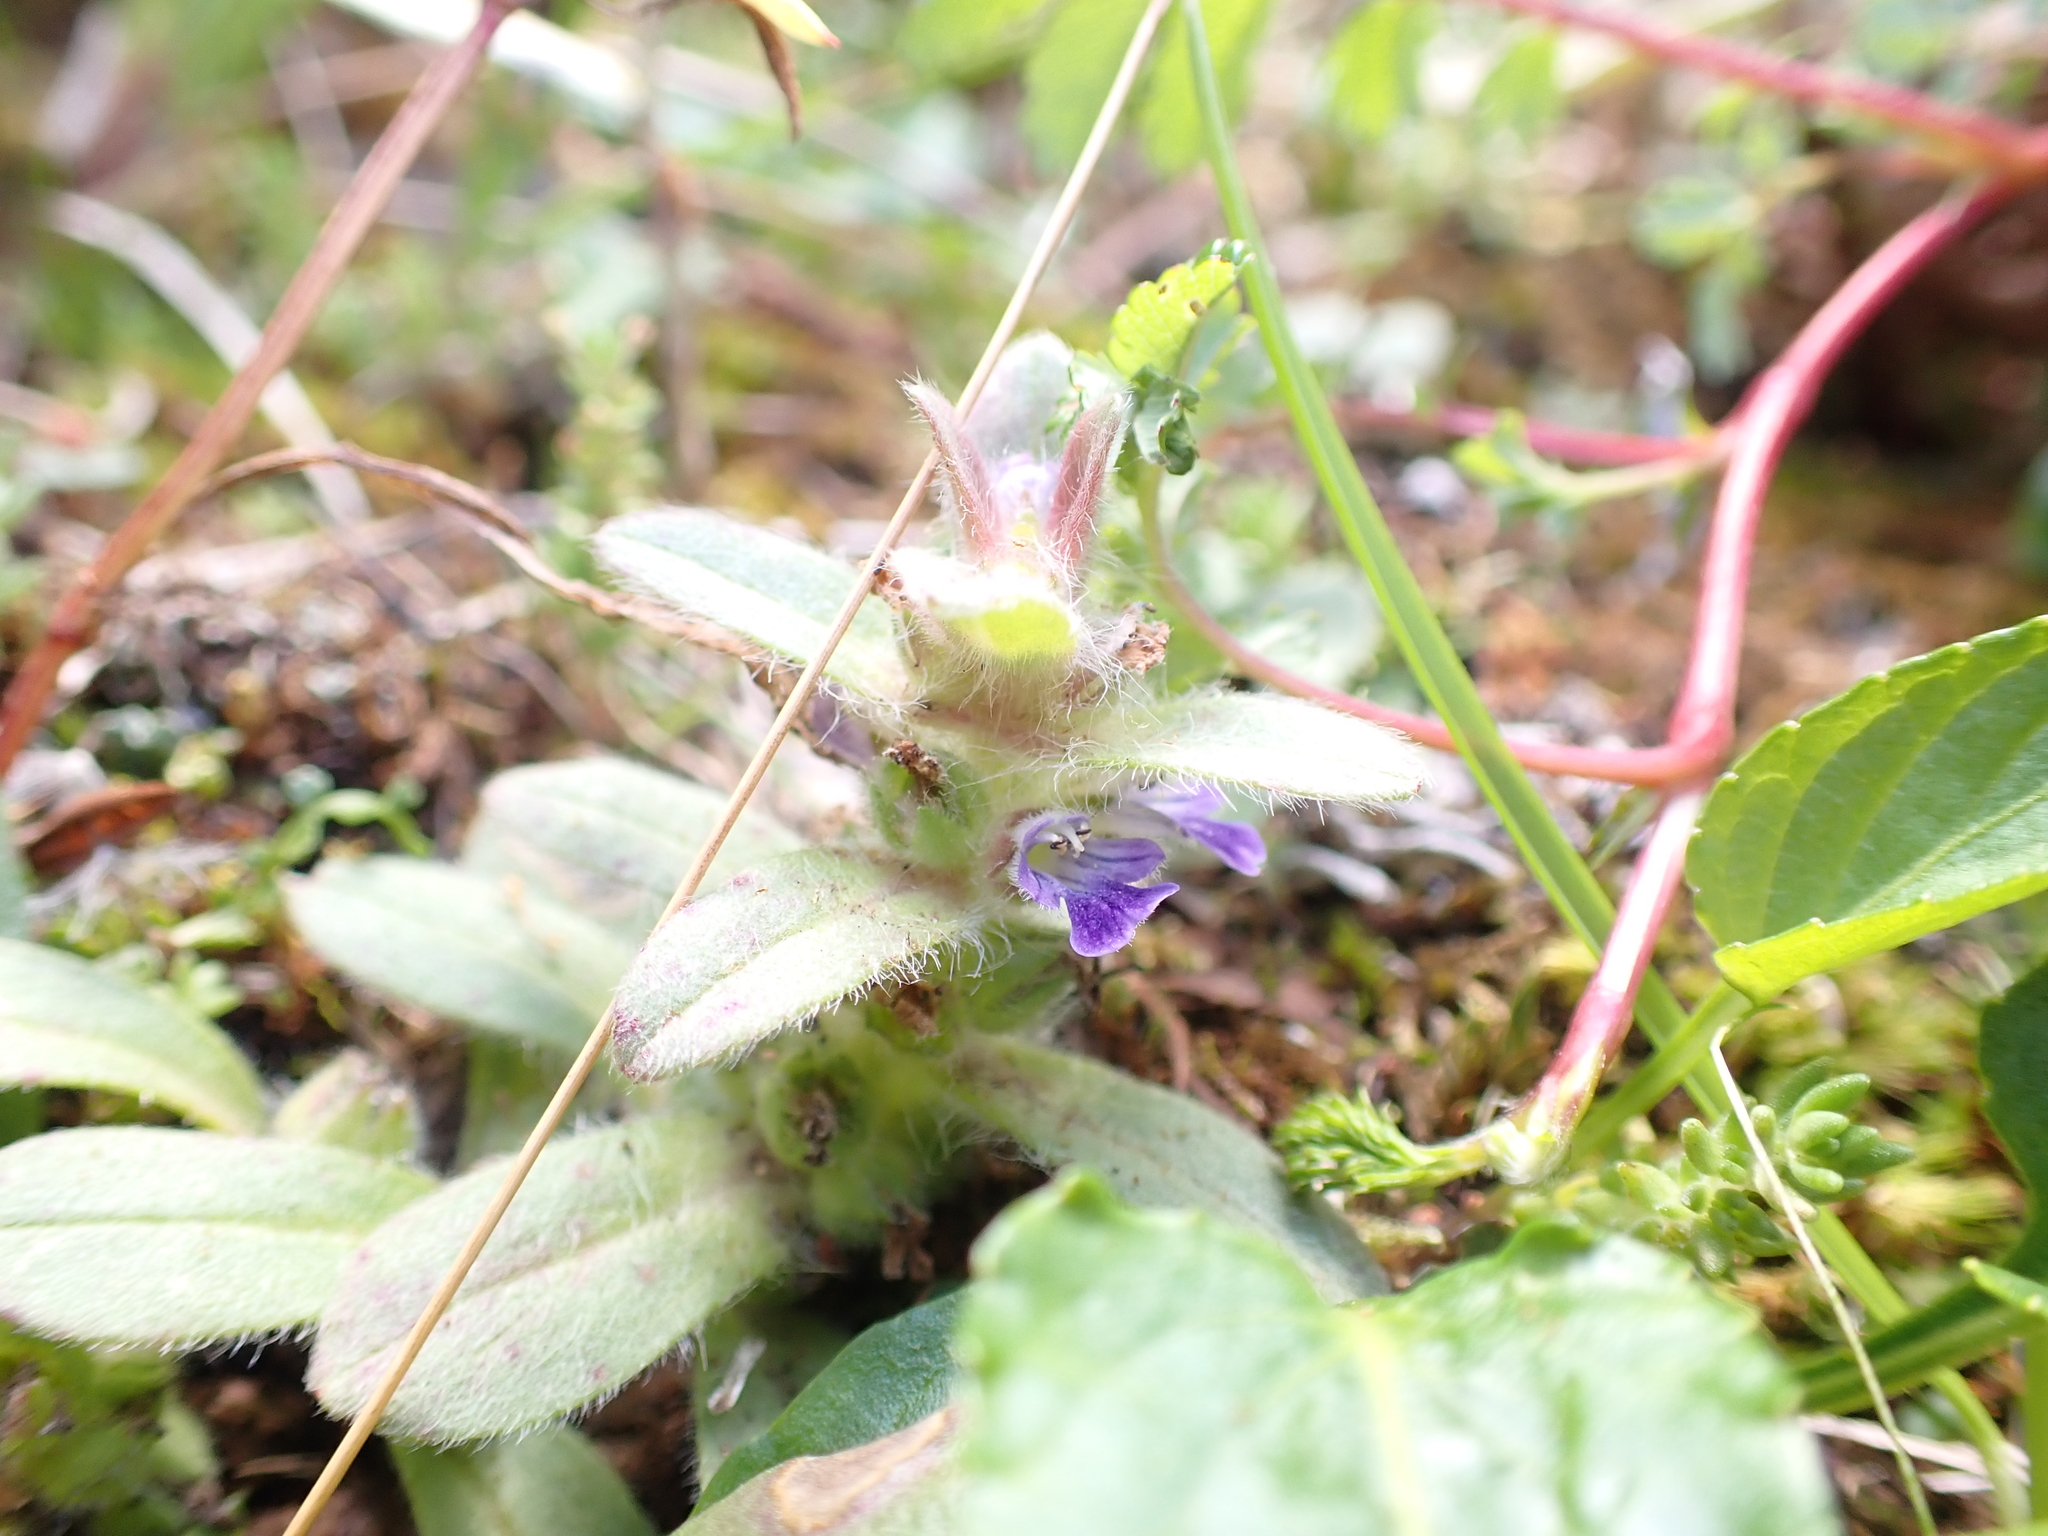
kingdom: Plantae
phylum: Tracheophyta
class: Magnoliopsida
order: Lamiales
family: Lamiaceae
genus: Ajuga
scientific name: Ajuga australis
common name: Australian bugle
